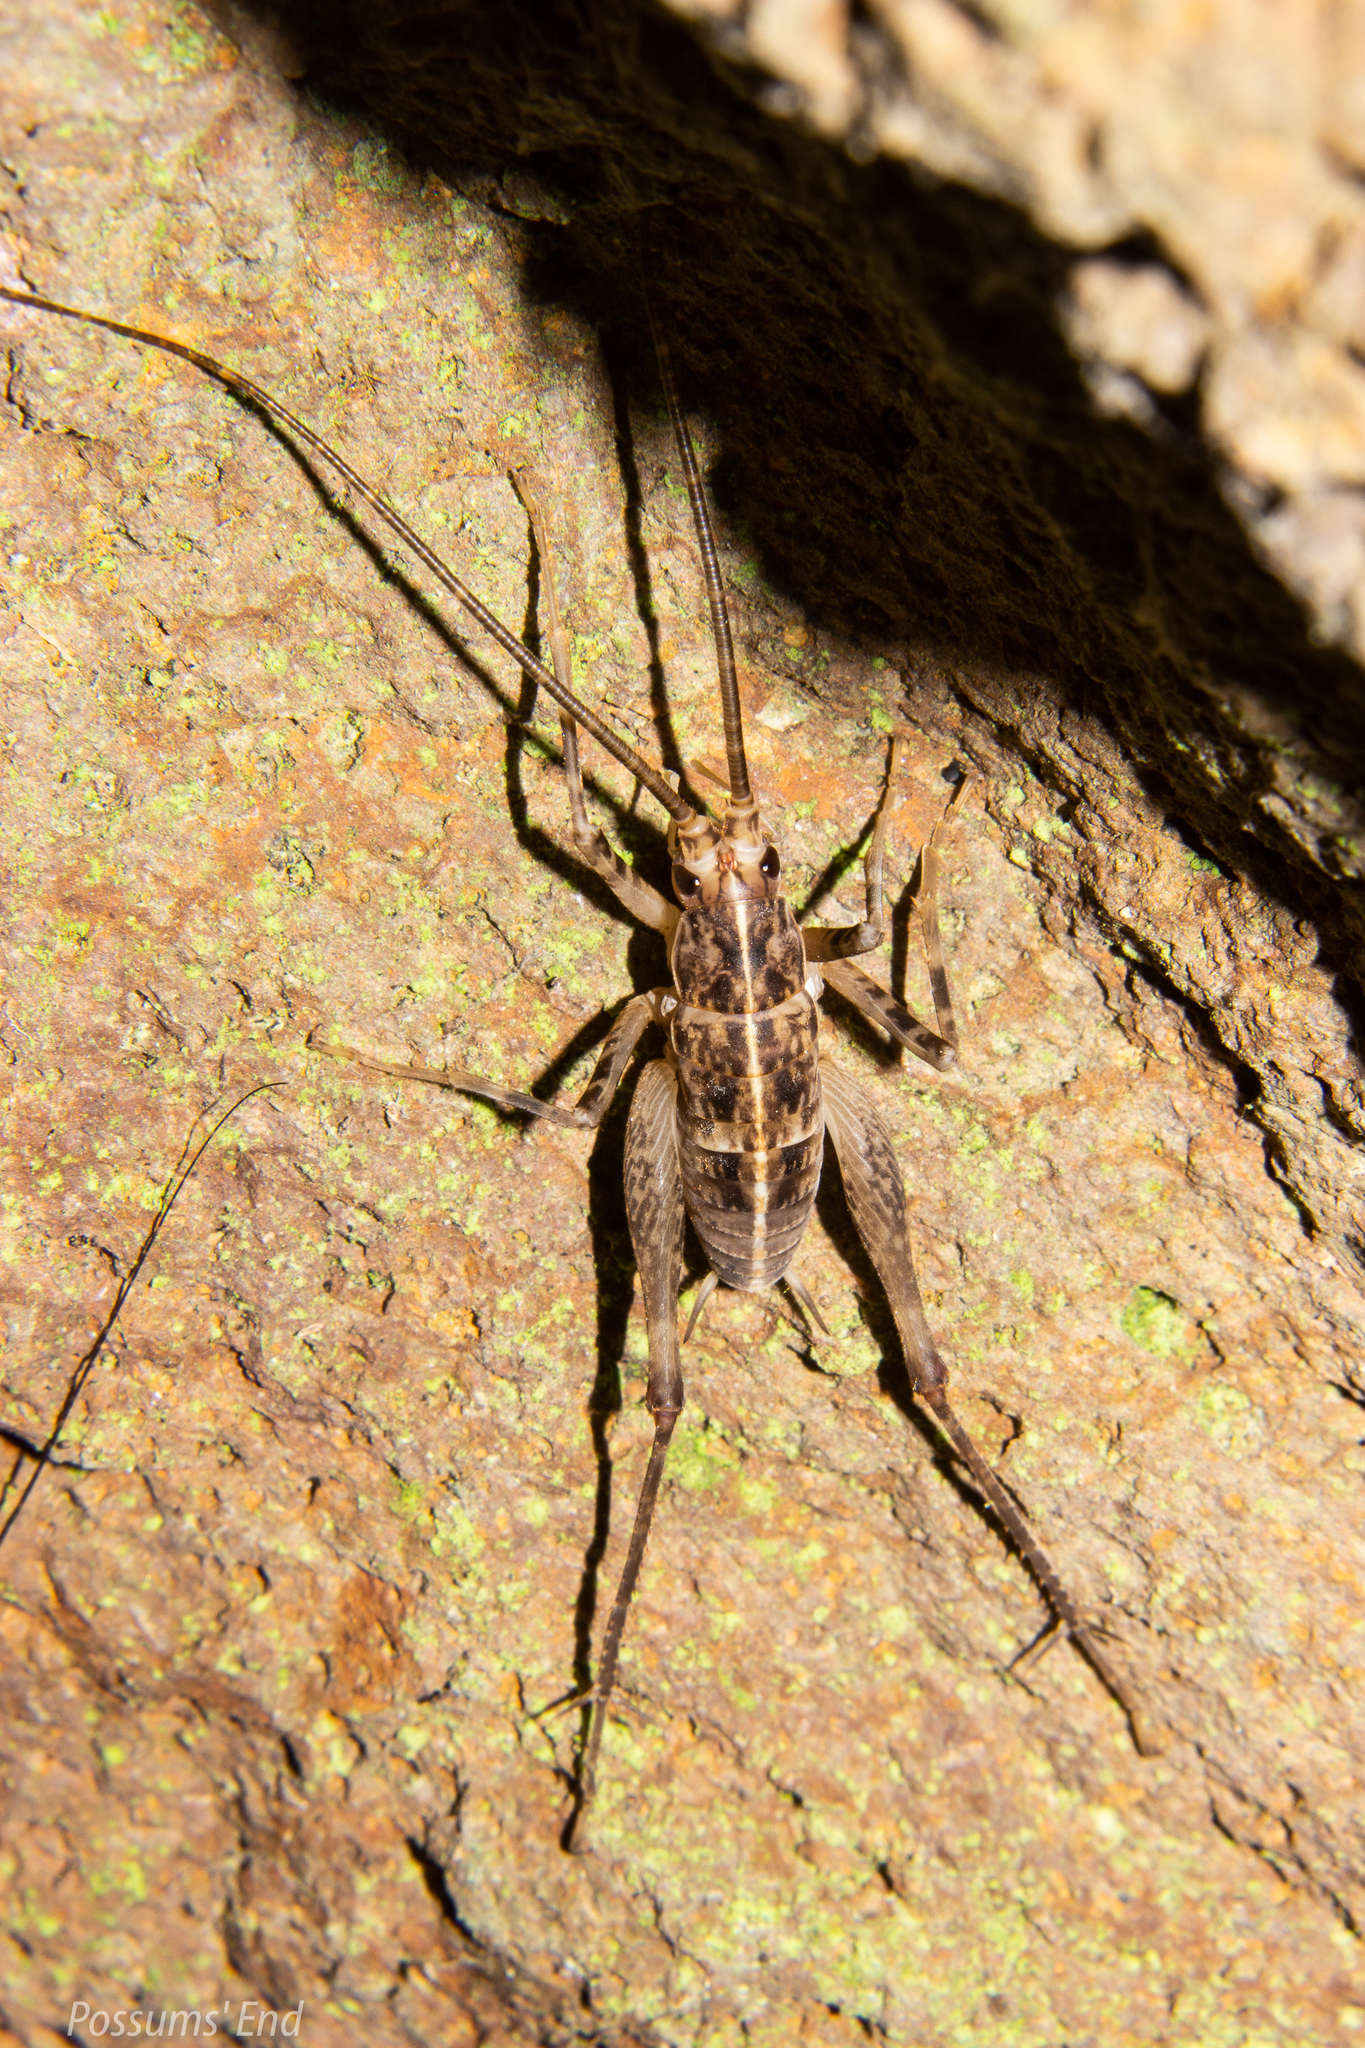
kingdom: Animalia
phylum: Arthropoda
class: Insecta
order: Orthoptera
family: Rhaphidophoridae
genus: Pleioplectron
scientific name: Pleioplectron simplex
